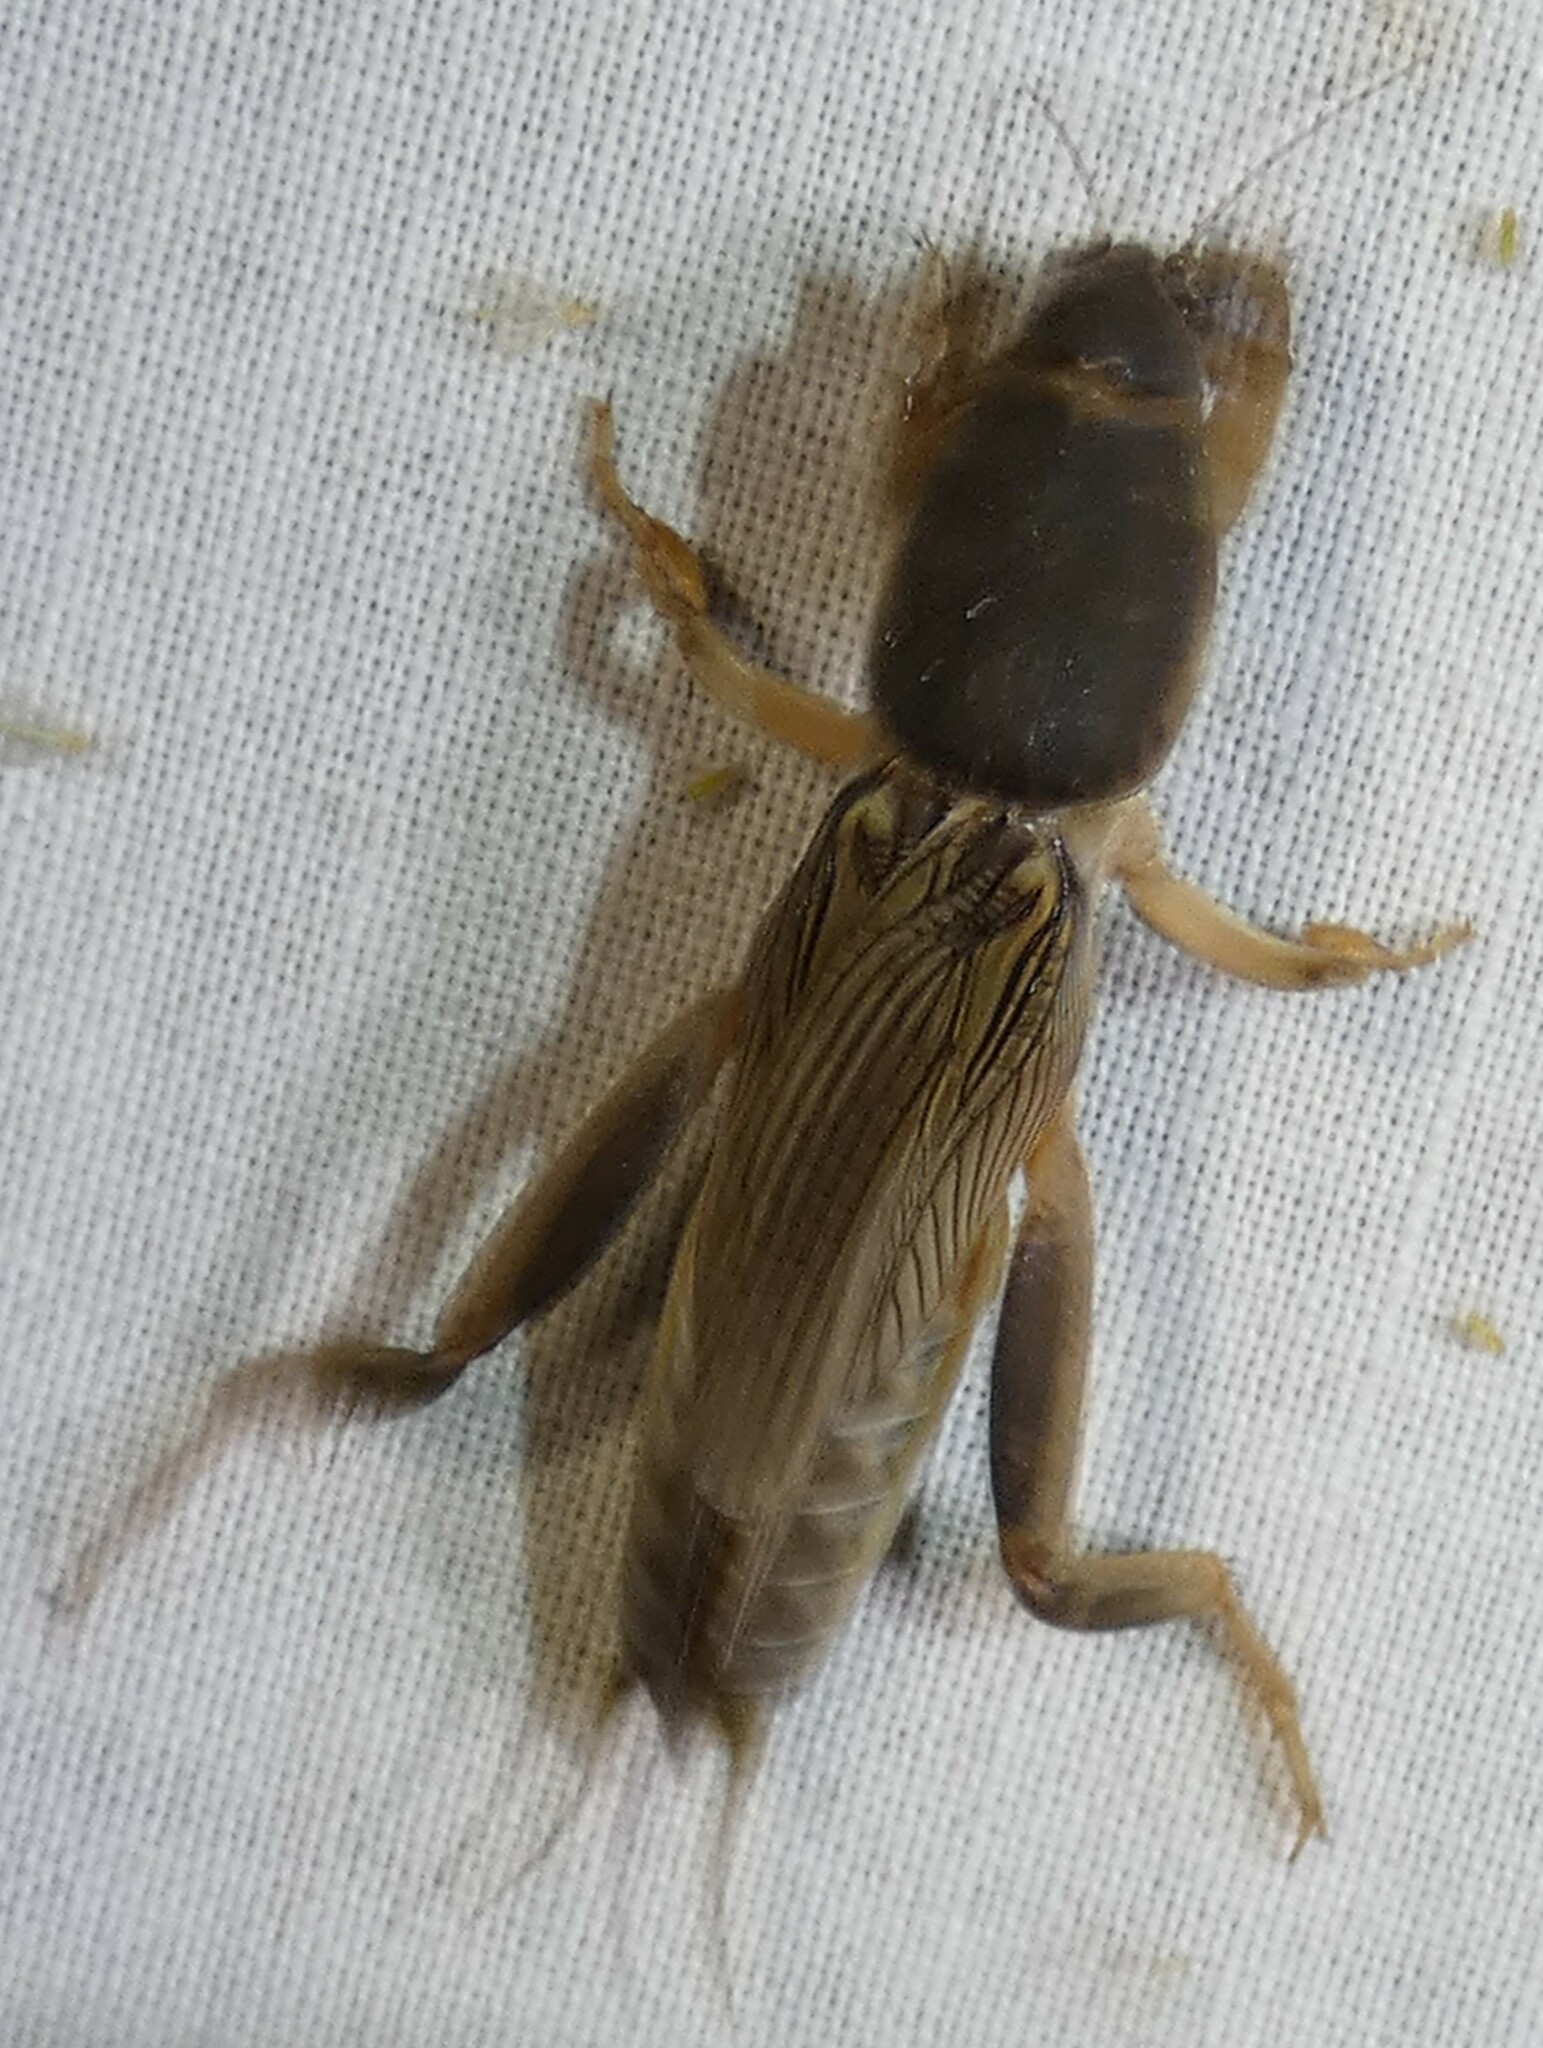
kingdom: Animalia
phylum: Arthropoda
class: Insecta
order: Orthoptera
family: Gryllotalpidae
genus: Neoscapteriscus
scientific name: Neoscapteriscus borellii
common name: Southern mole cricket
